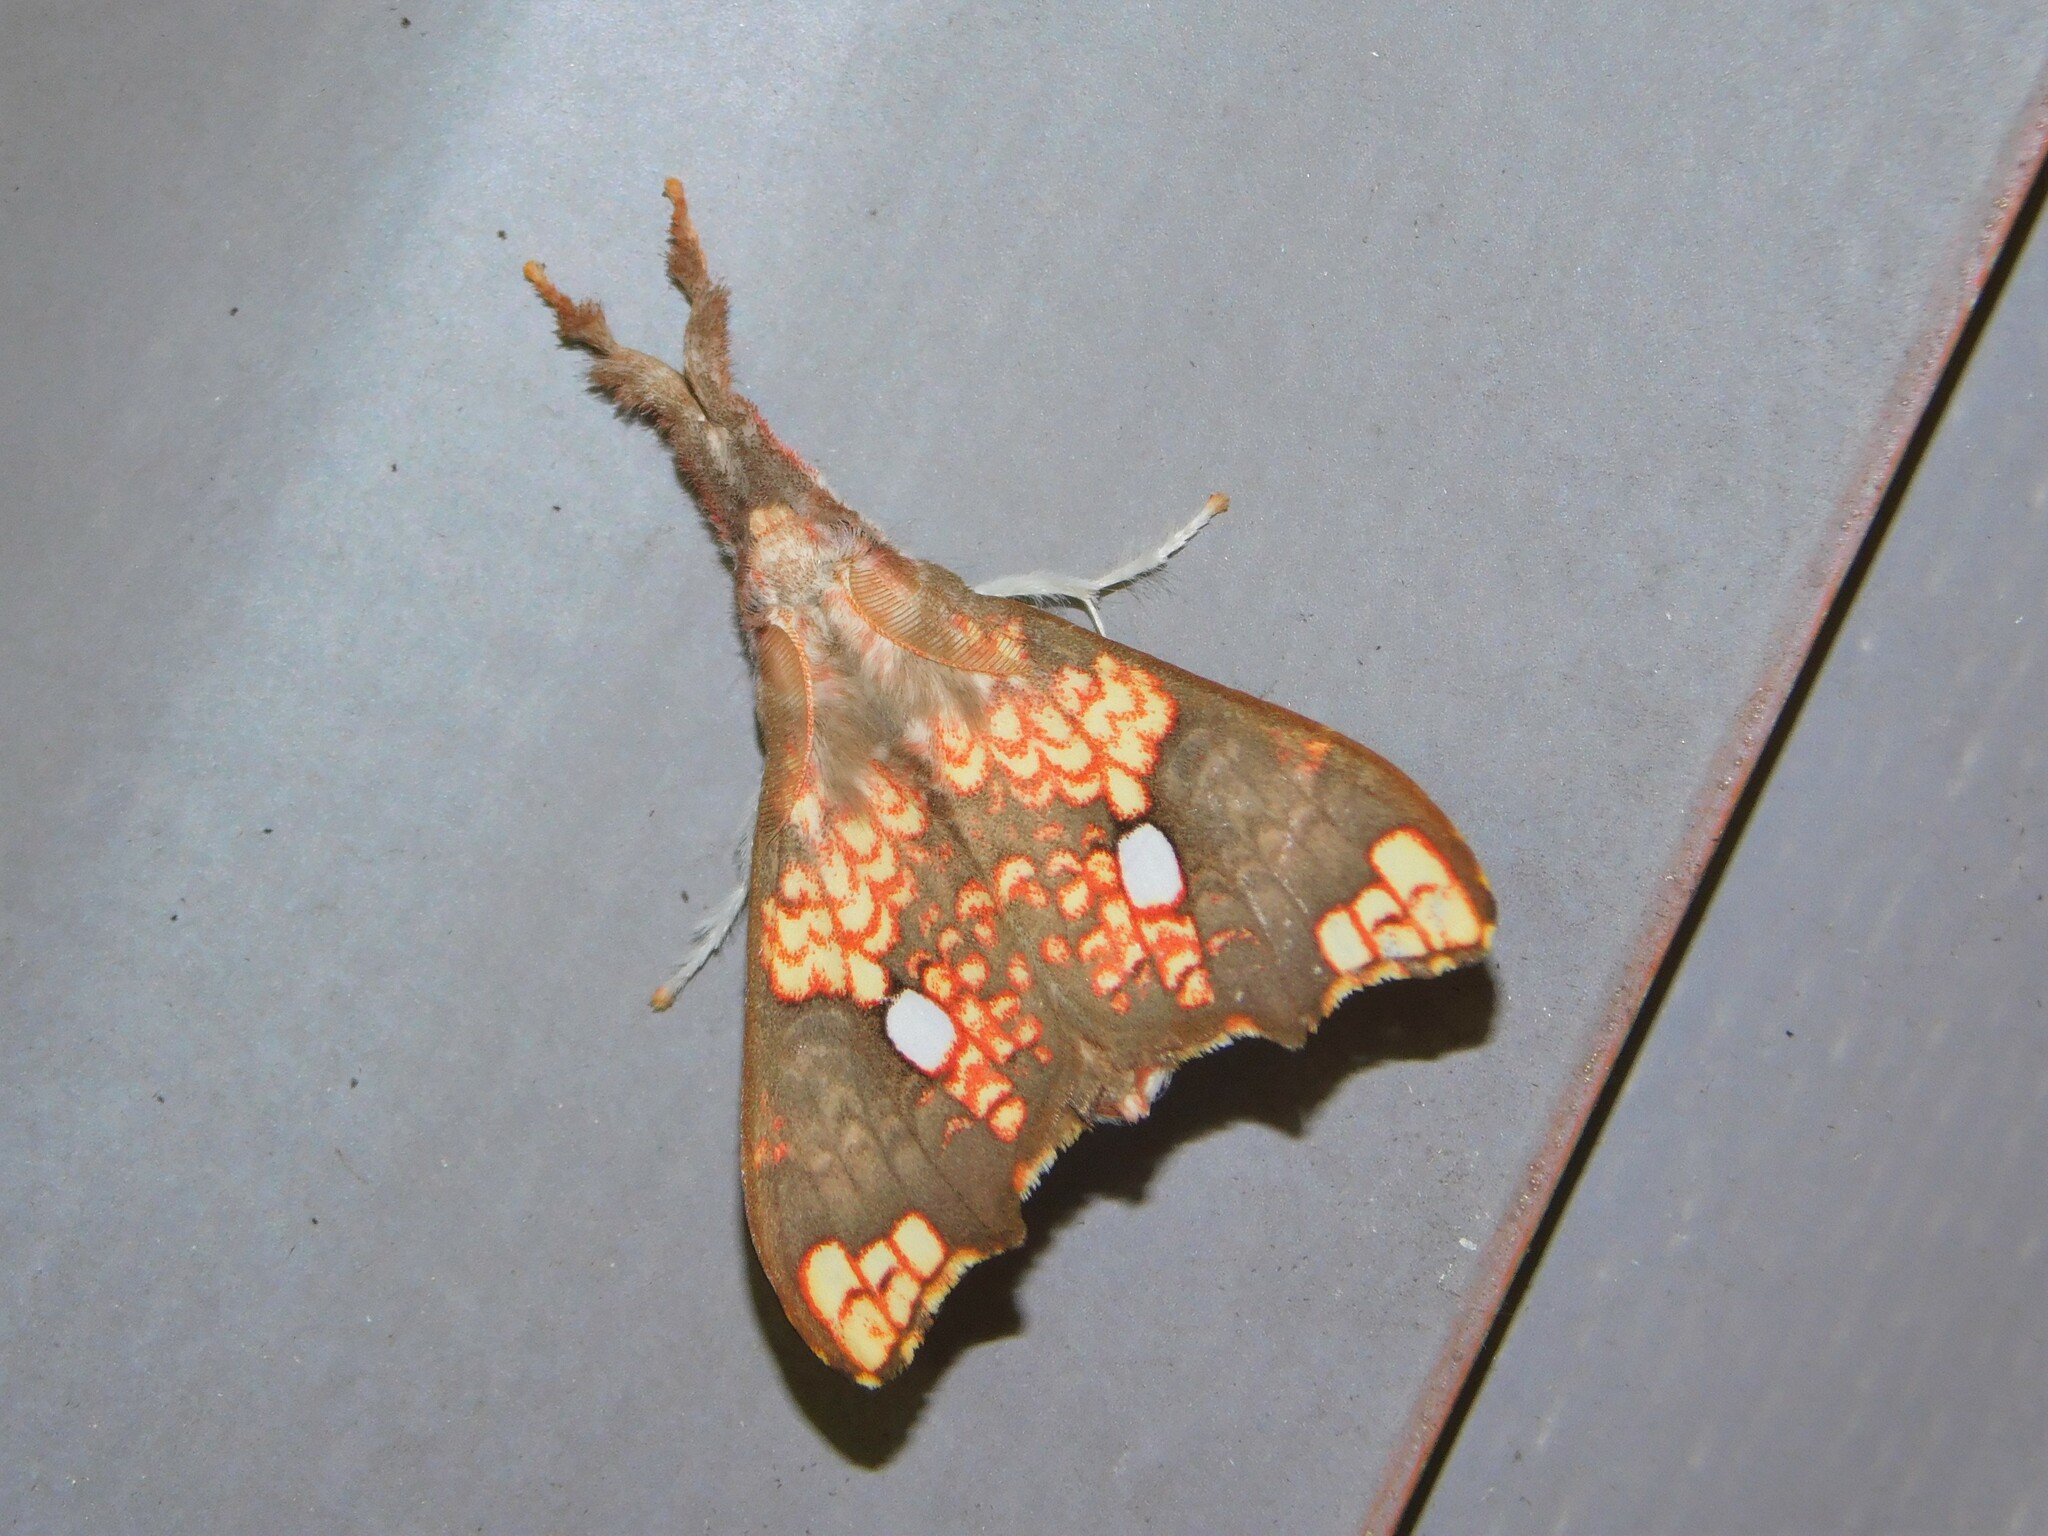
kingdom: Animalia
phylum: Arthropoda
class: Insecta
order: Lepidoptera
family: Erebidae
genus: Lomadonta
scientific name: Lomadonta erythrina
